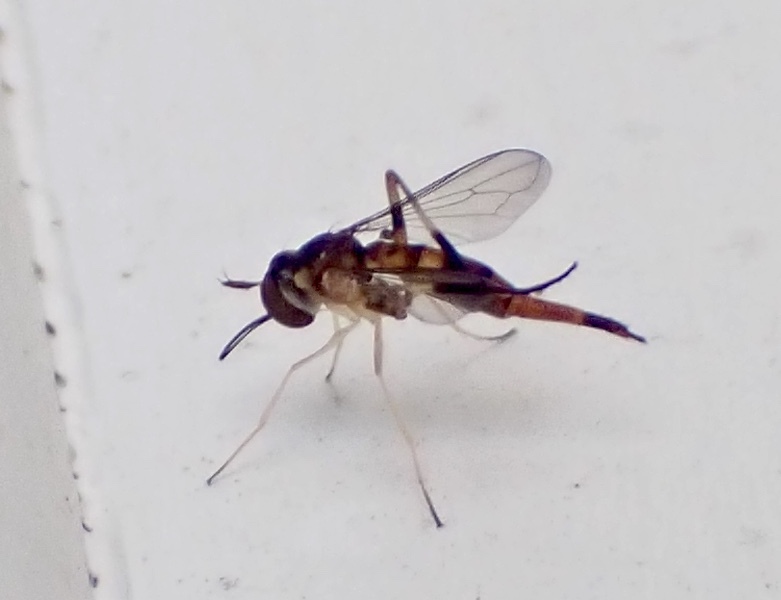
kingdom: Animalia
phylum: Arthropoda
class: Insecta
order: Diptera
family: Conopidae
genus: Stylogaster
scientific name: Stylogaster biannulata
